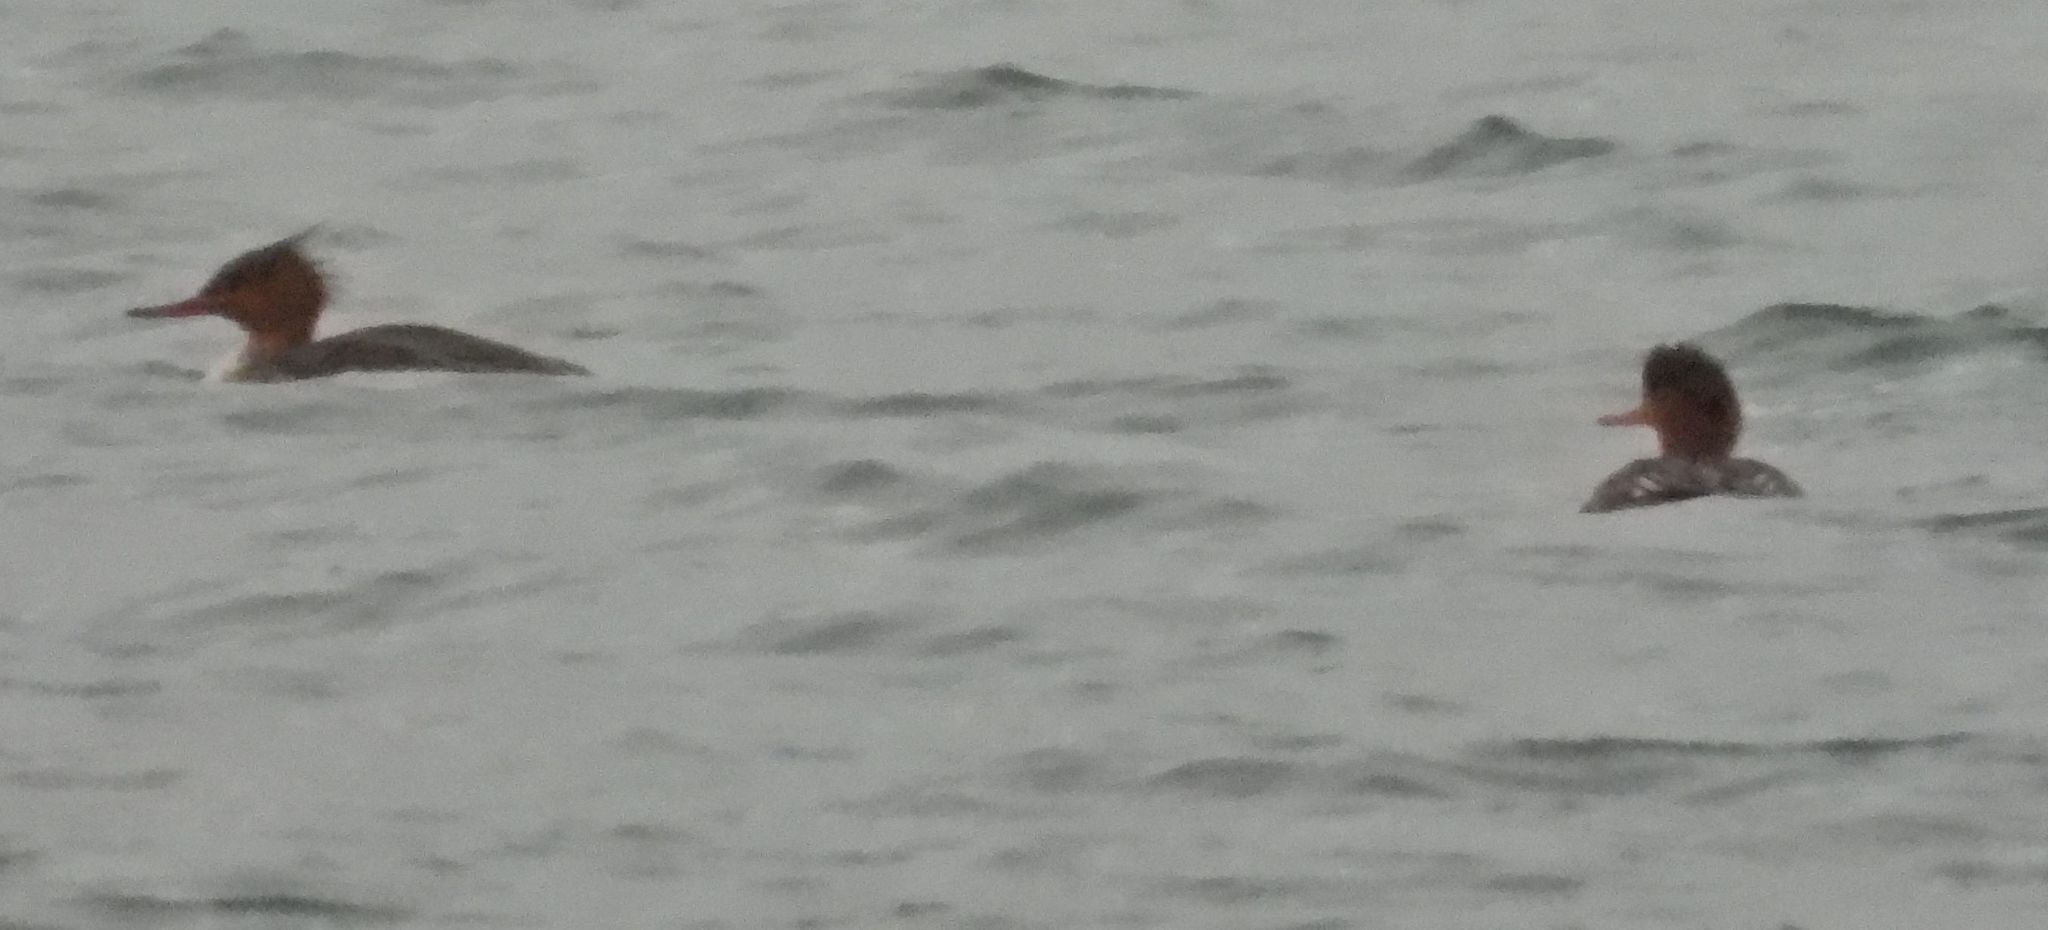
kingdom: Animalia
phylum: Chordata
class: Aves
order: Anseriformes
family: Anatidae
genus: Mergus
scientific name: Mergus serrator
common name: Red-breasted merganser
